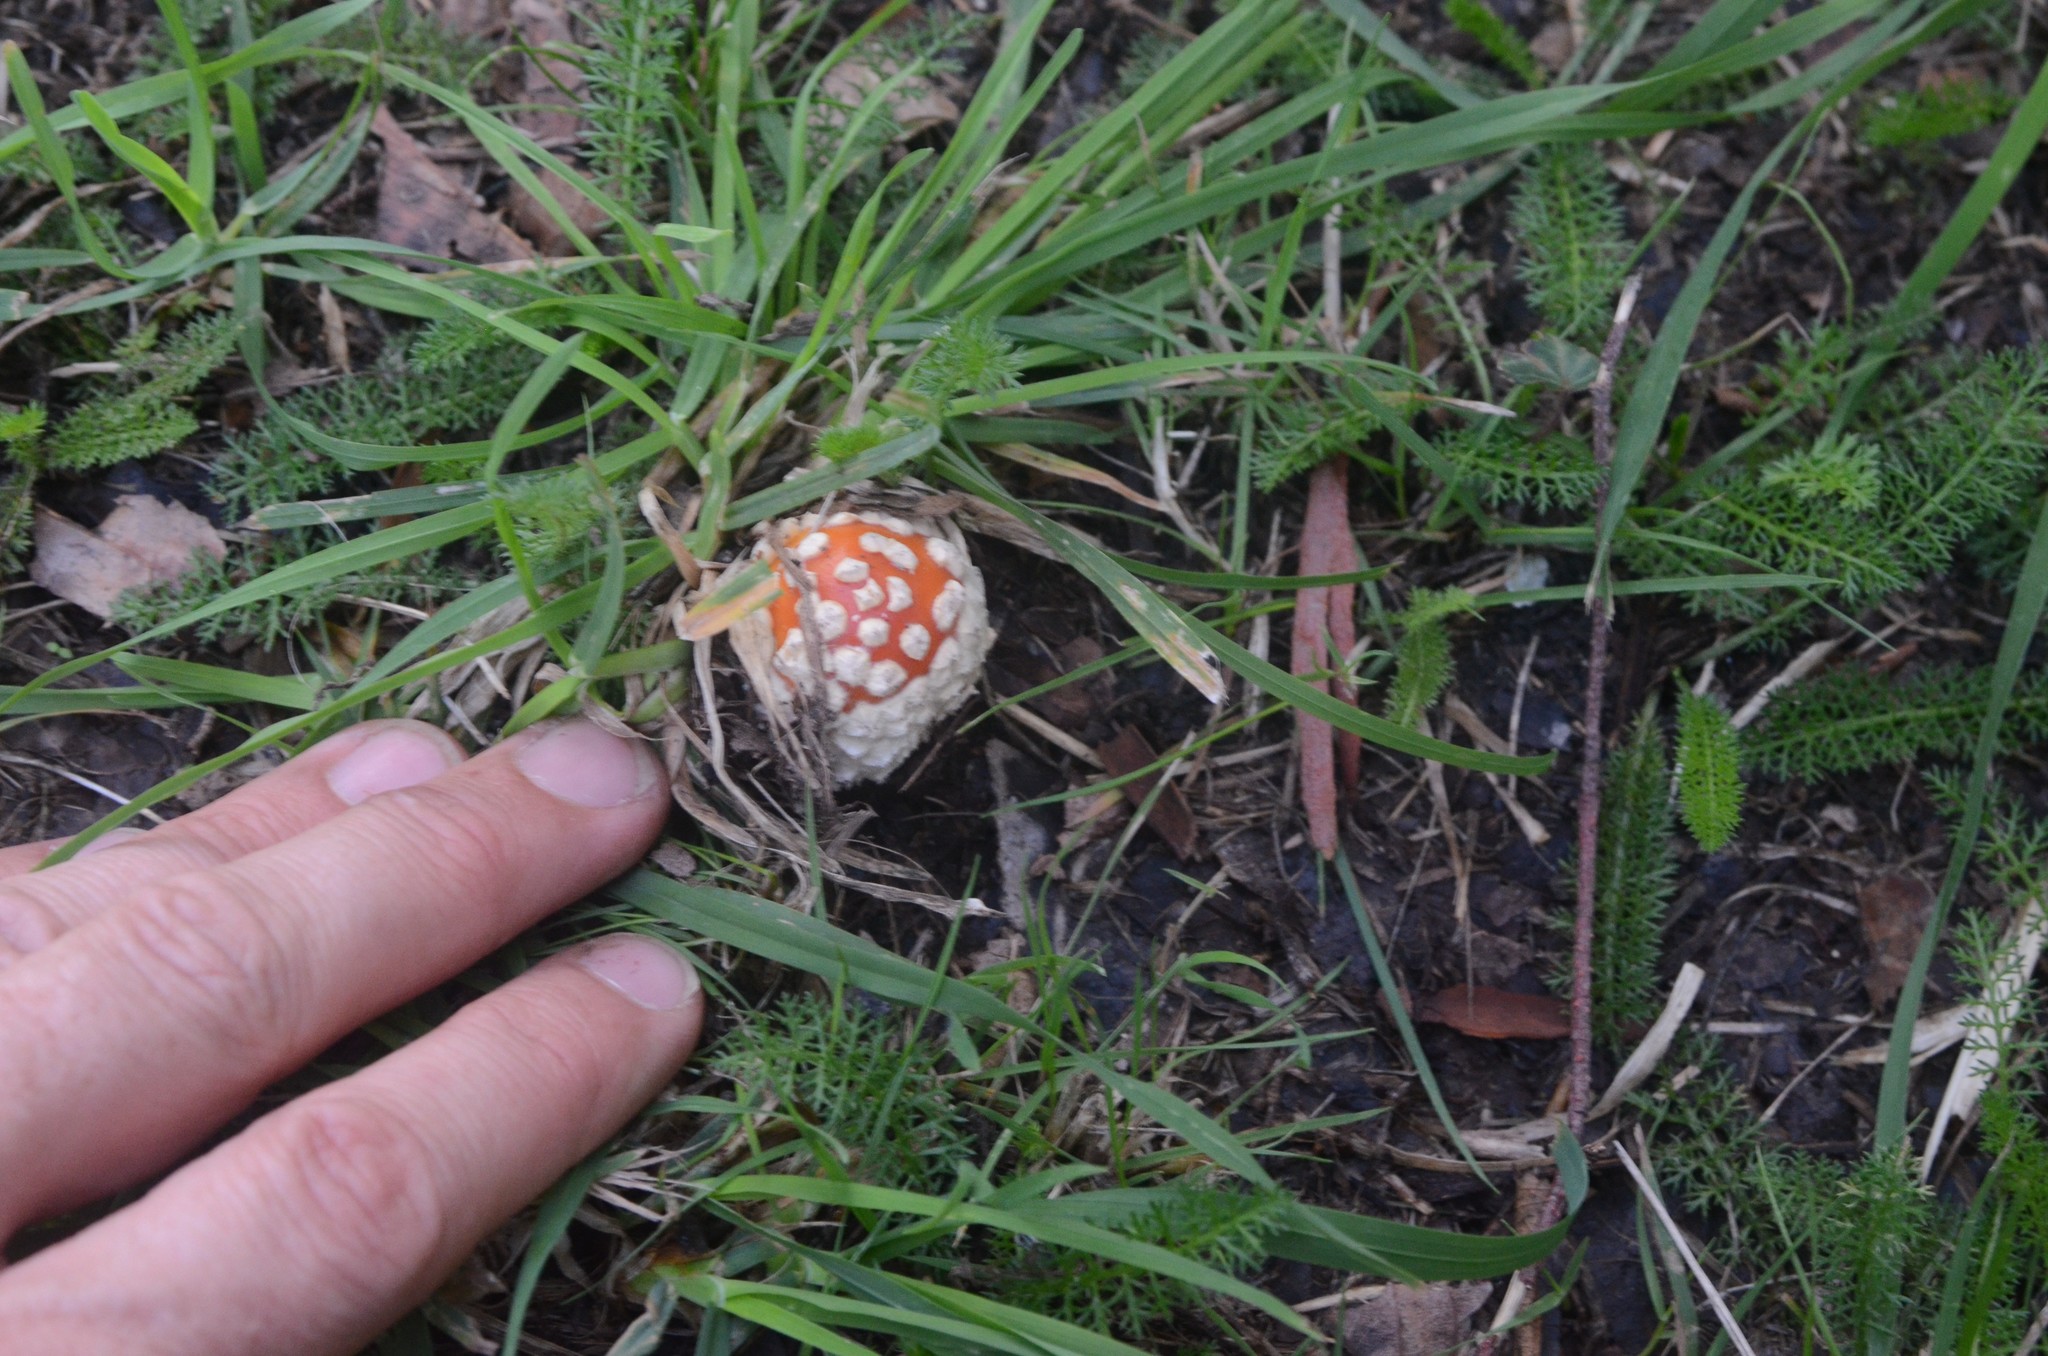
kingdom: Fungi
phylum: Basidiomycota
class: Agaricomycetes
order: Agaricales
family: Amanitaceae
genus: Amanita
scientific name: Amanita muscaria
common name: Fly agaric
